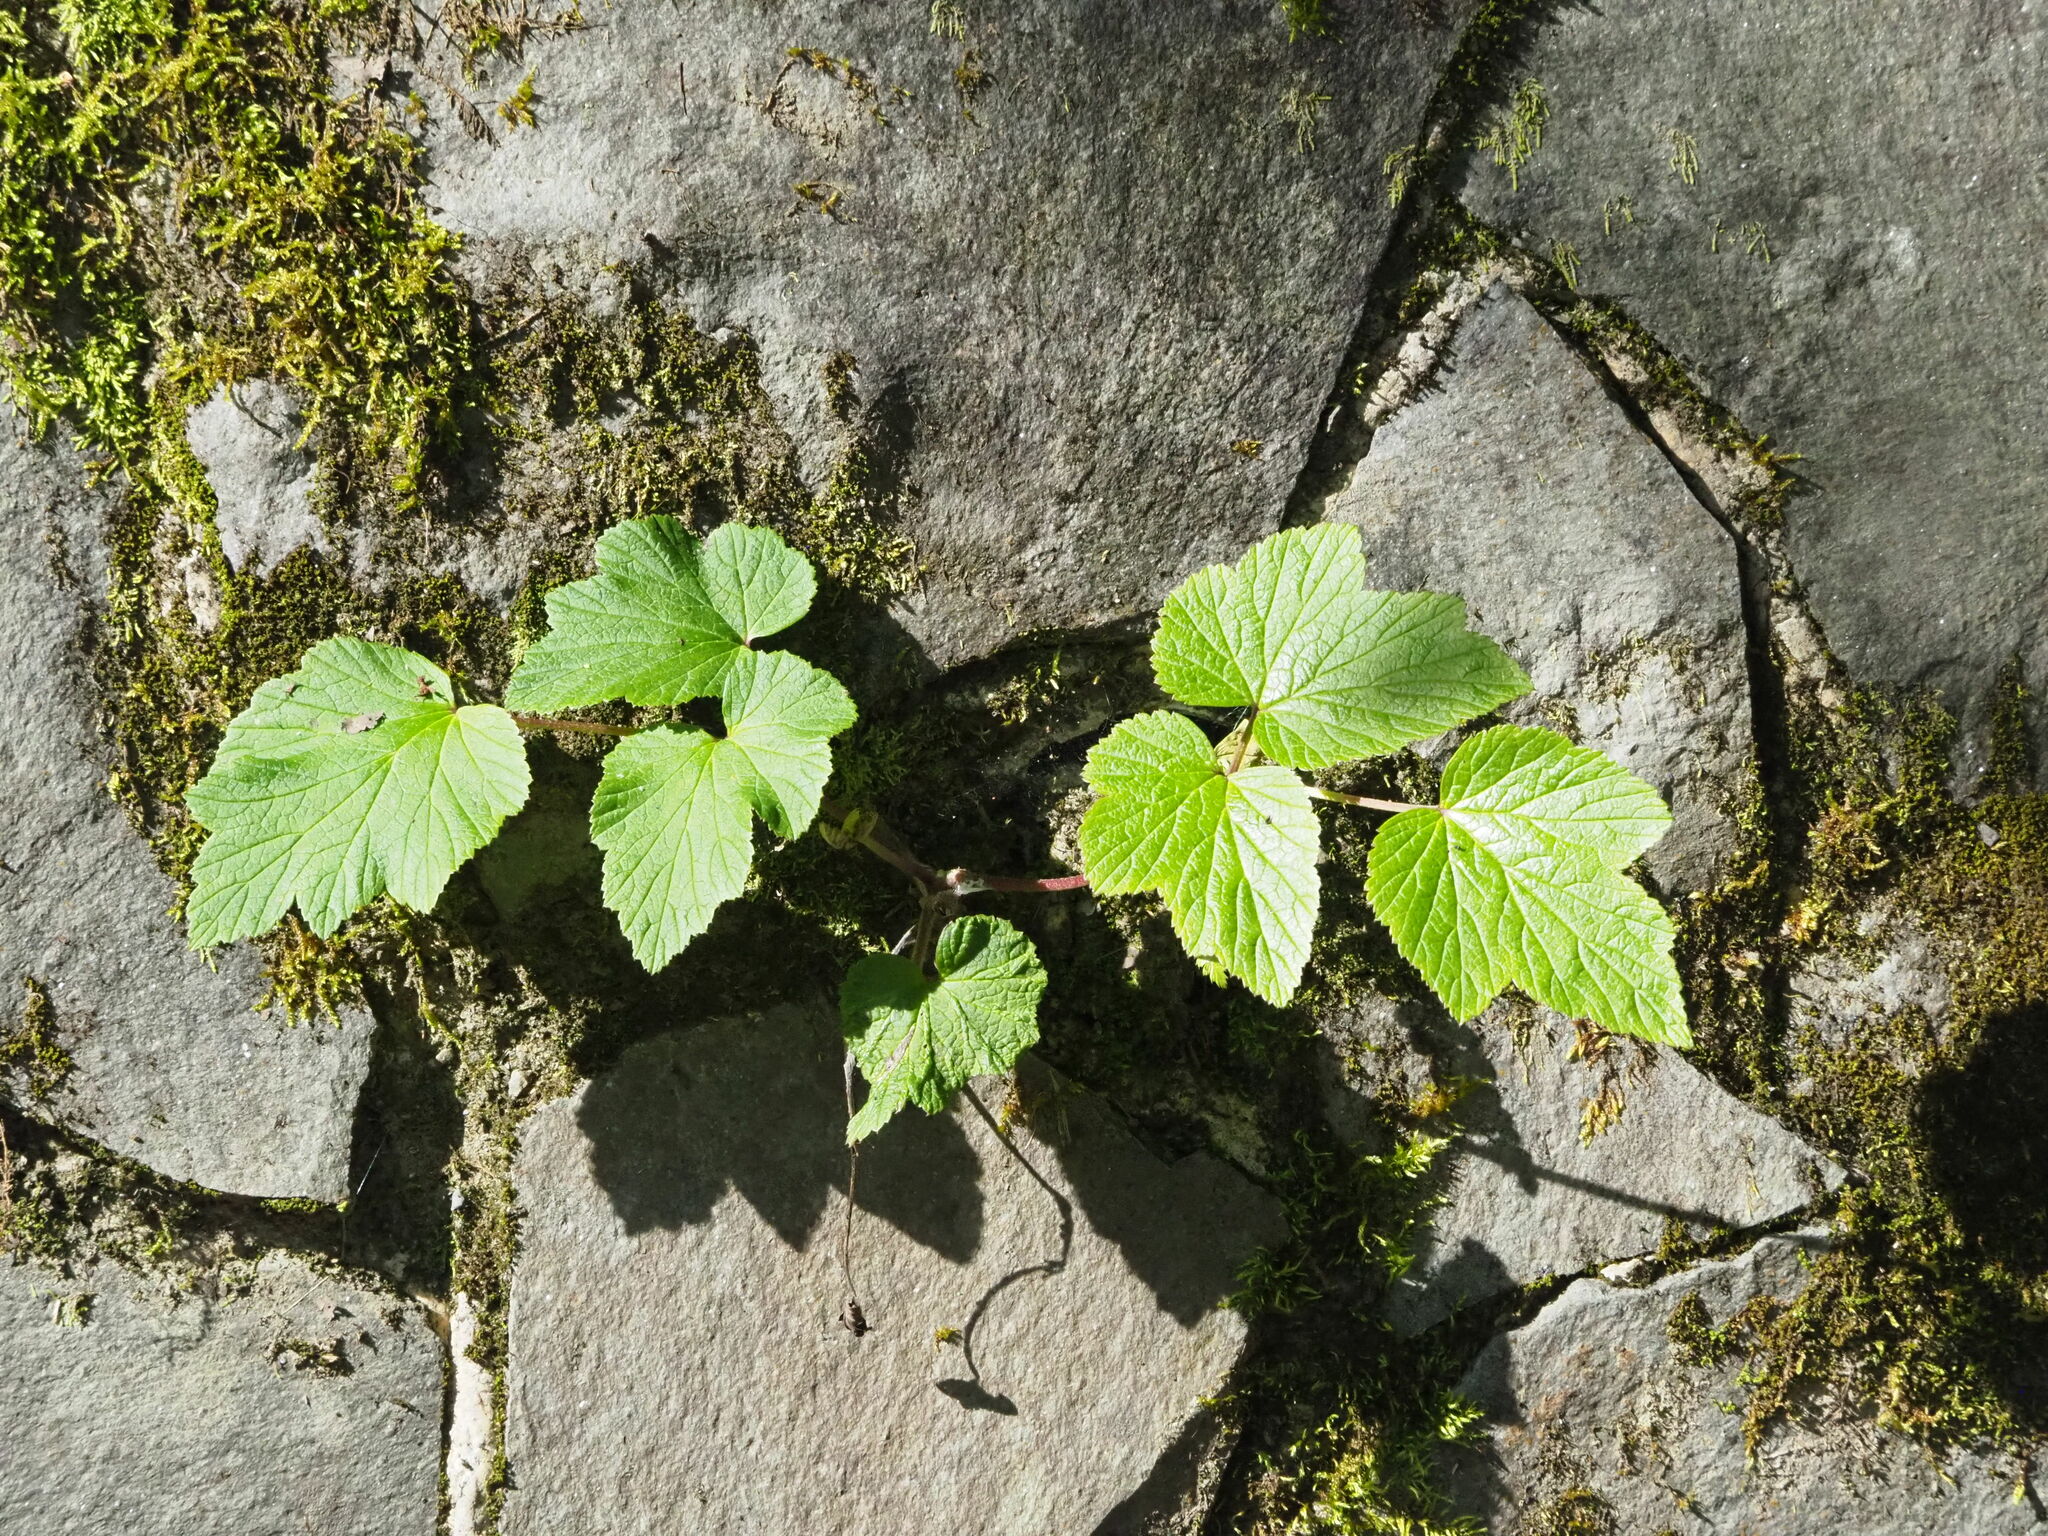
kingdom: Plantae
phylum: Tracheophyta
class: Magnoliopsida
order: Ranunculales
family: Ranunculaceae
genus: Eriocapitella
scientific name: Eriocapitella vitifolia
